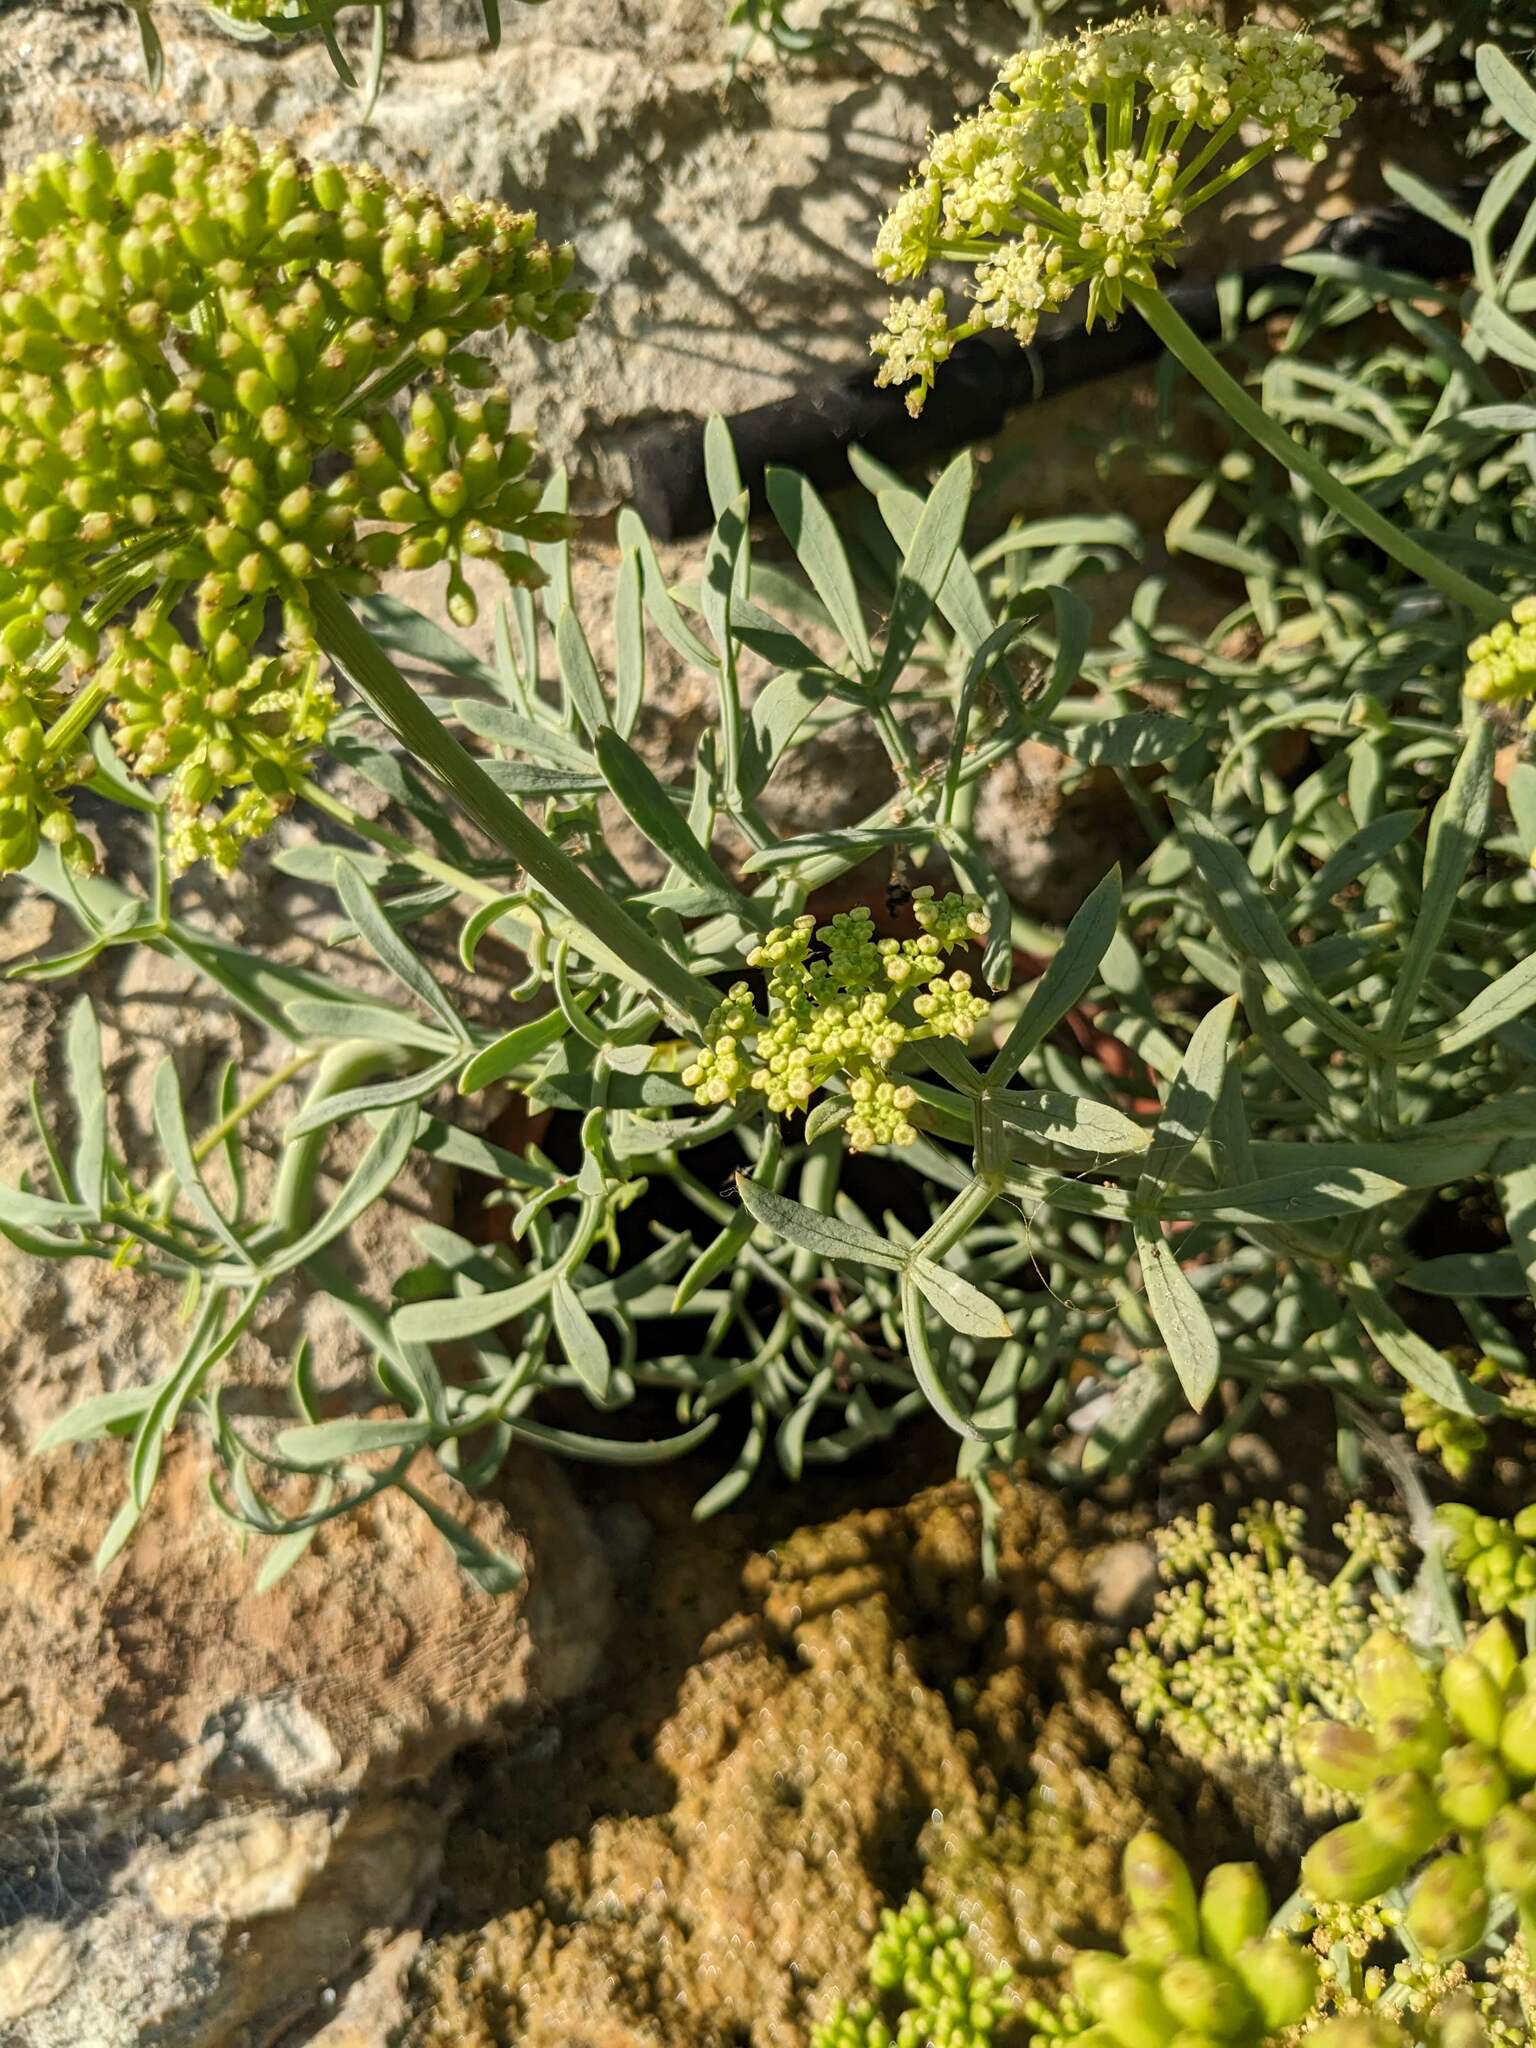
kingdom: Plantae
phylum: Tracheophyta
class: Magnoliopsida
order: Apiales
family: Apiaceae
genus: Crithmum
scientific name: Crithmum maritimum
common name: Rock samphire
